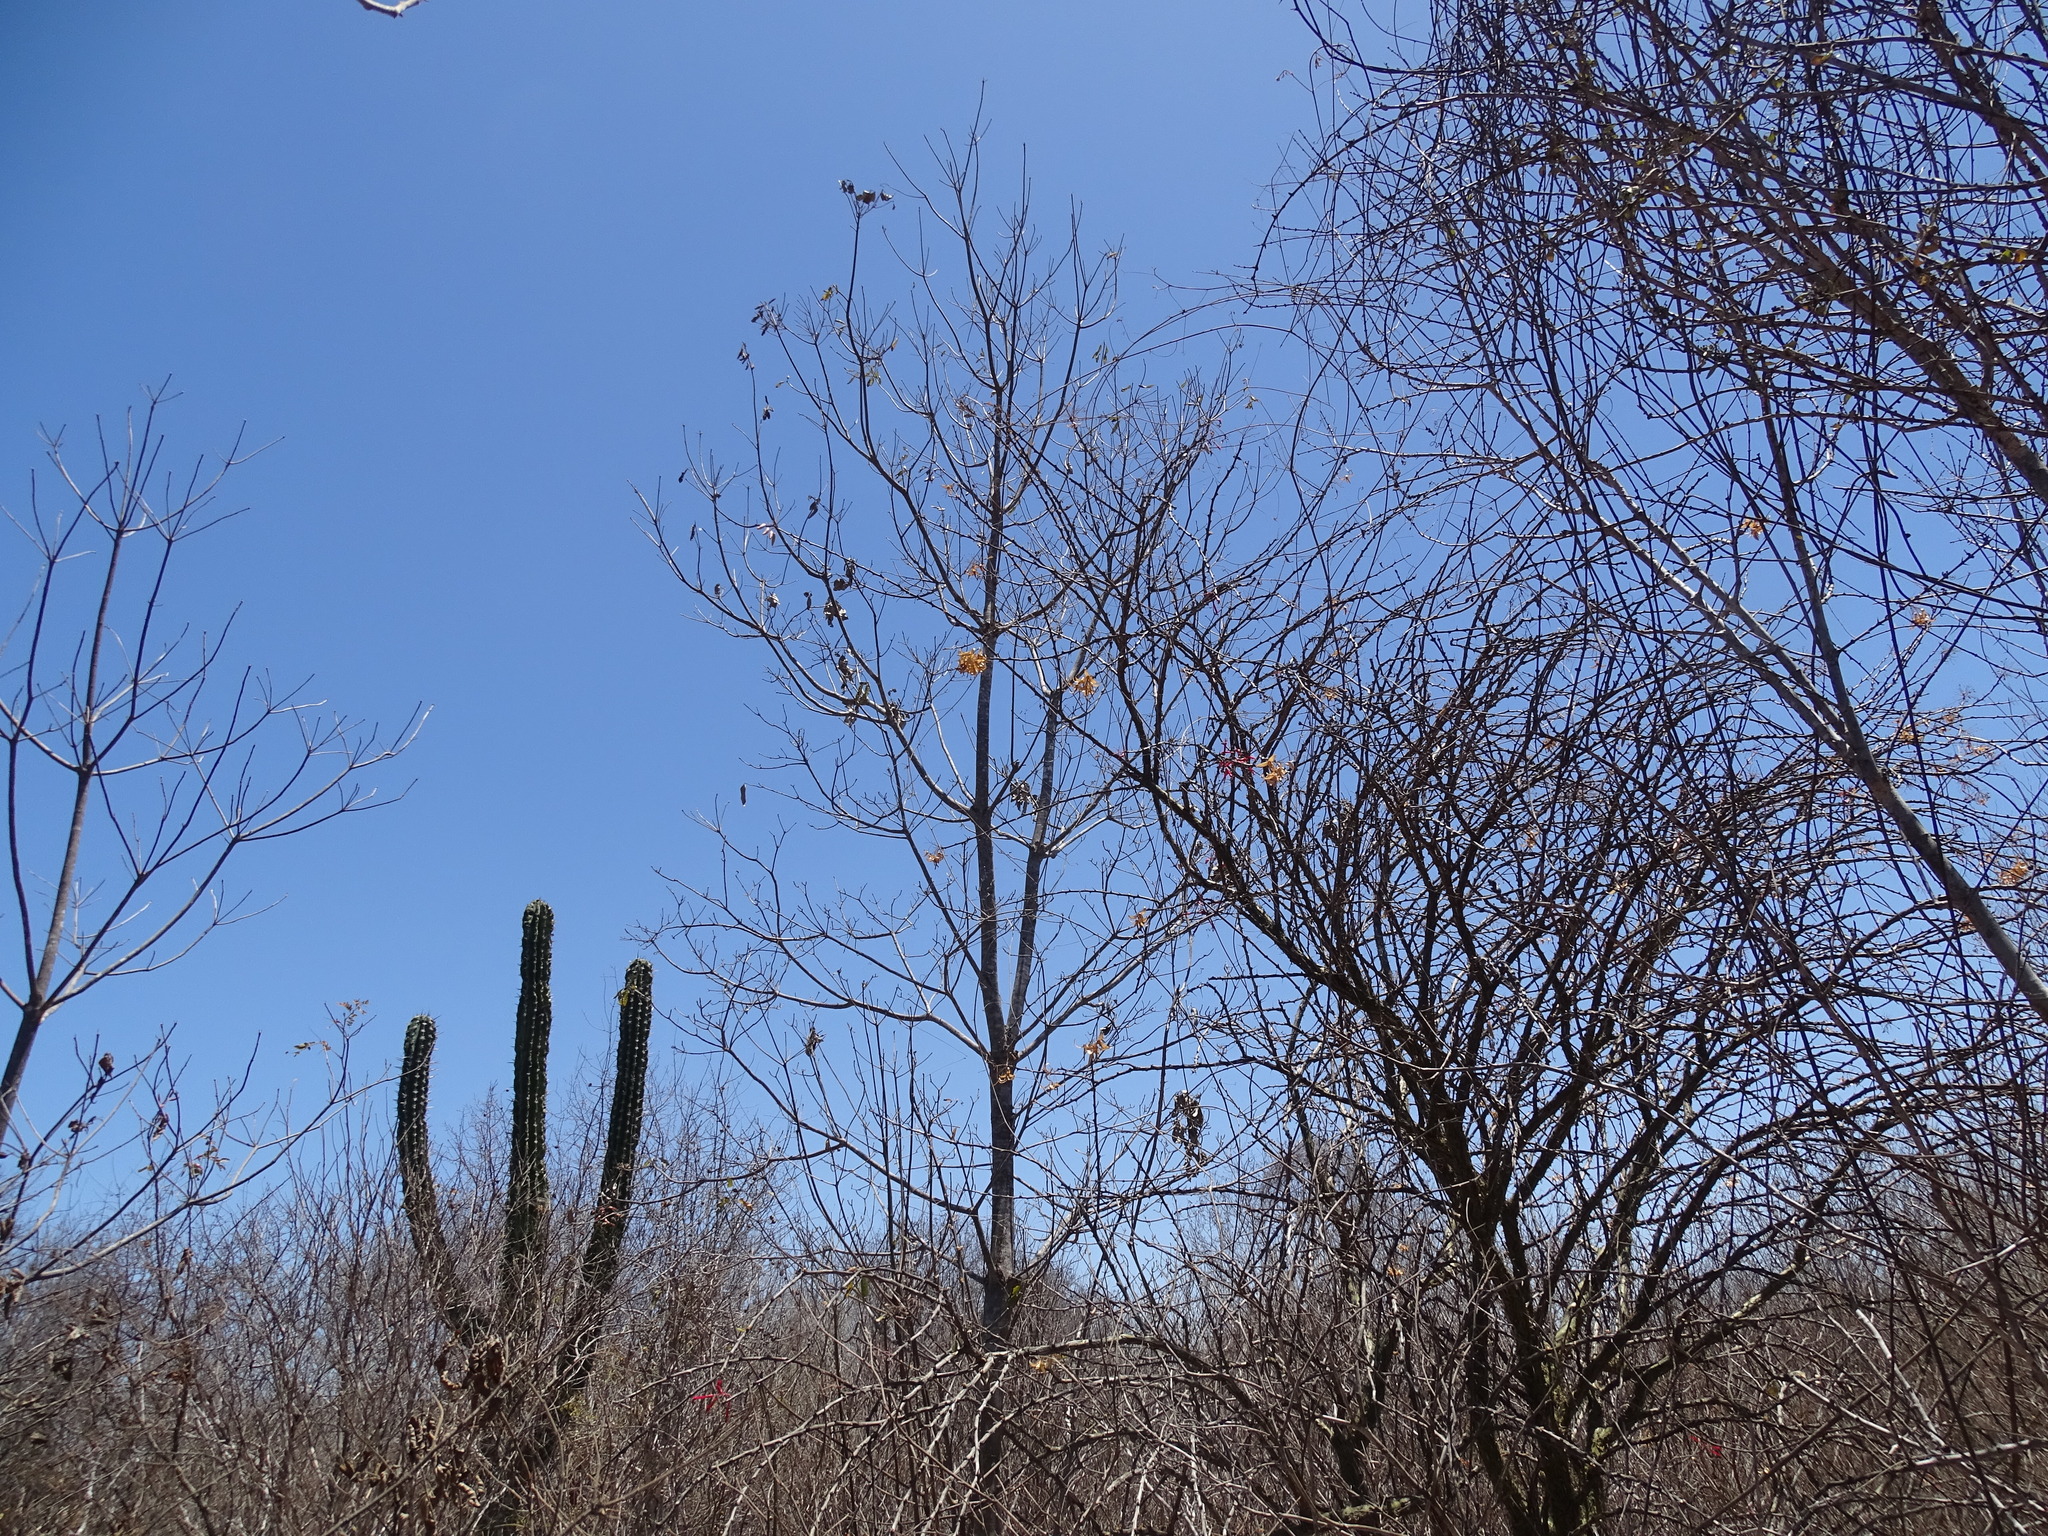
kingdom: Plantae
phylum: Tracheophyta
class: Magnoliopsida
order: Boraginales
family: Cordiaceae
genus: Cordia
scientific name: Cordia sonorae
